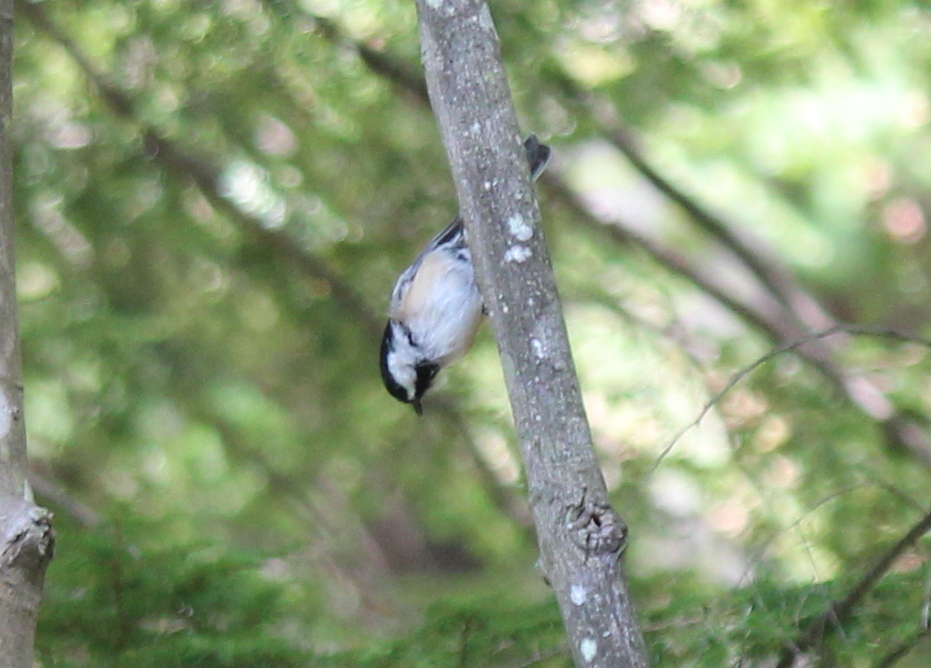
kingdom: Animalia
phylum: Chordata
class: Aves
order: Passeriformes
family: Paridae
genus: Poecile
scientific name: Poecile atricapillus
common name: Black-capped chickadee
